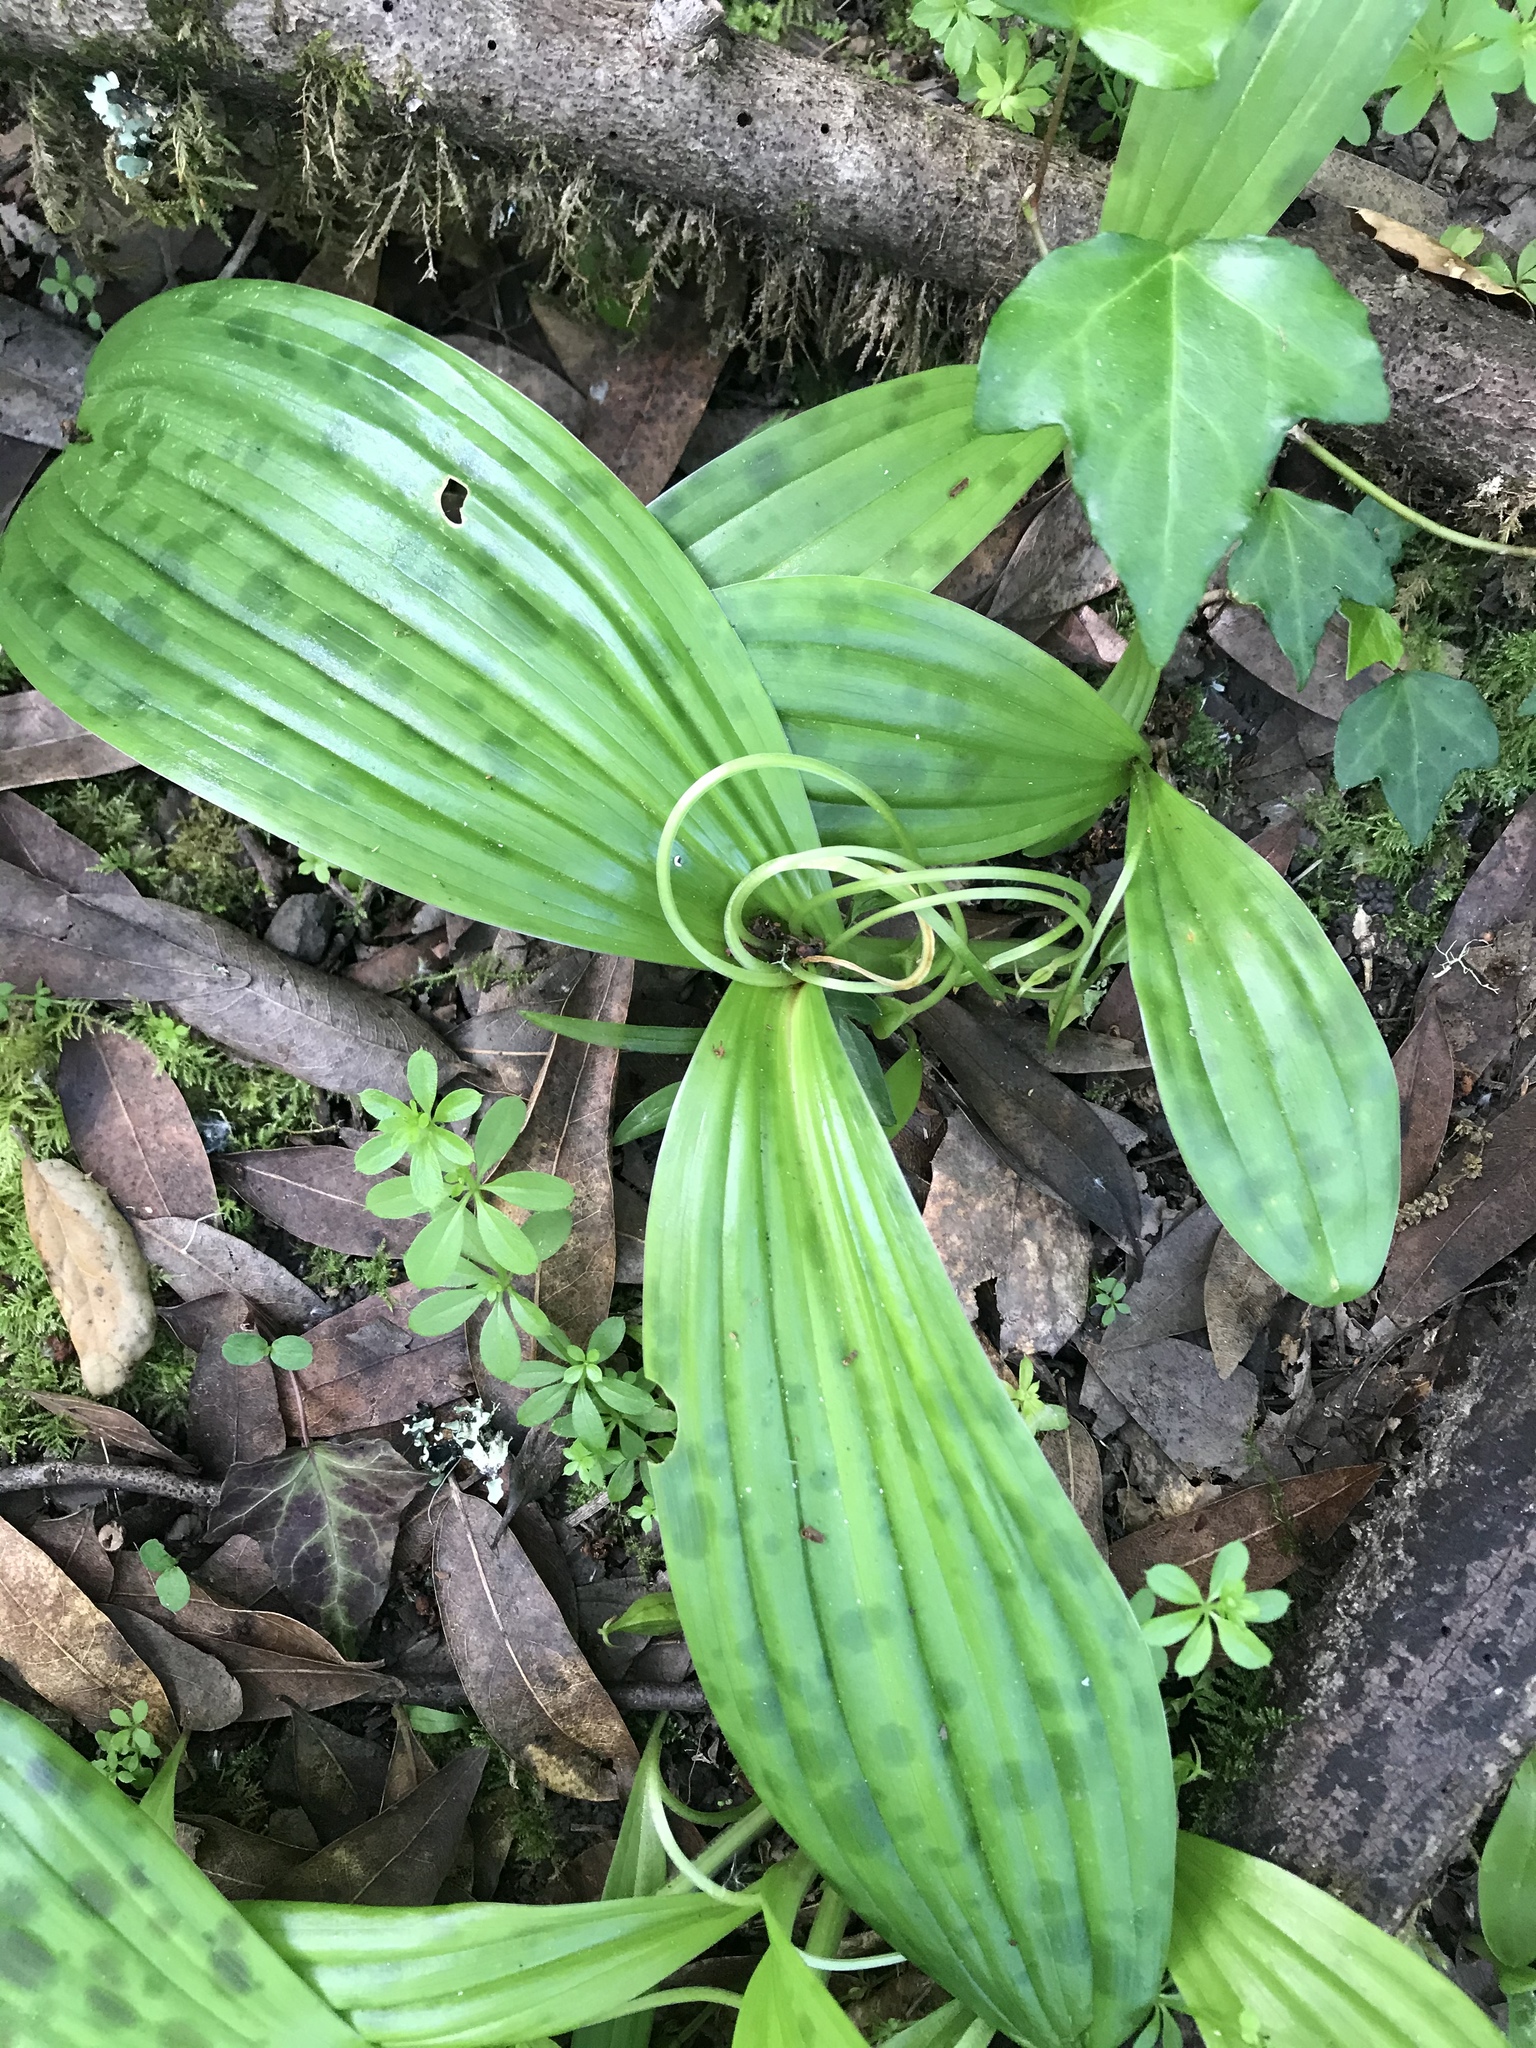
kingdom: Plantae
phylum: Tracheophyta
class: Liliopsida
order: Liliales
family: Liliaceae
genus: Scoliopus
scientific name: Scoliopus bigelovii
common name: Foetid adder's-tongue
